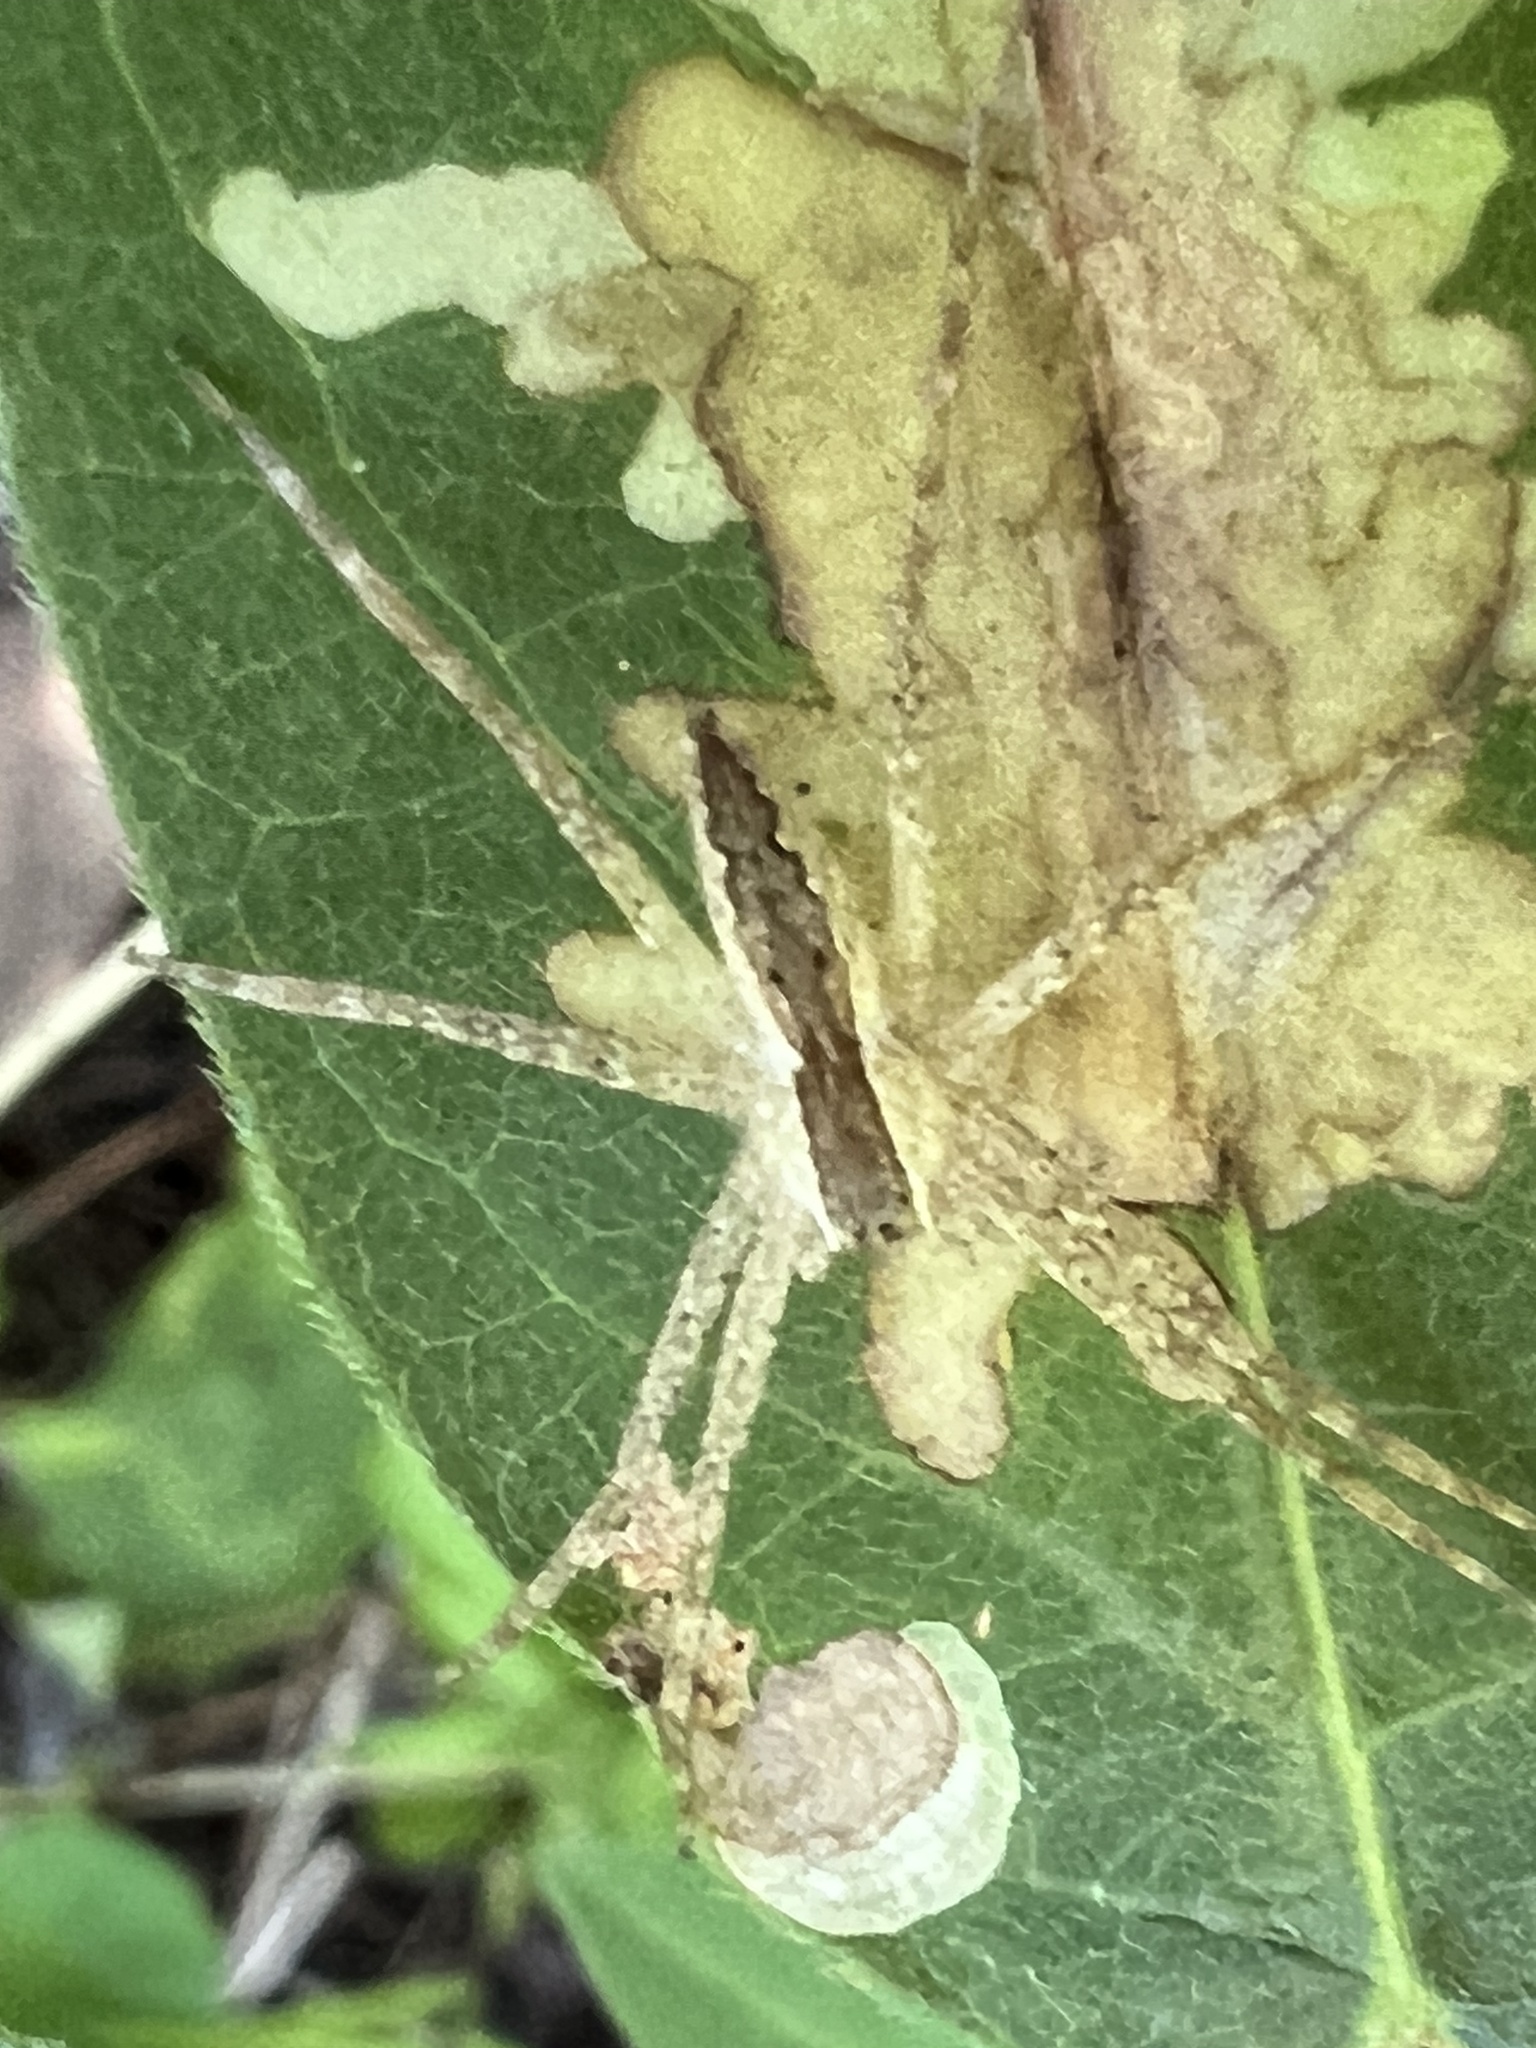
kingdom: Animalia
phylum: Arthropoda
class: Arachnida
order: Araneae
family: Pisauridae
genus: Pisaurina
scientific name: Pisaurina mira
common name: American nursery web spider
